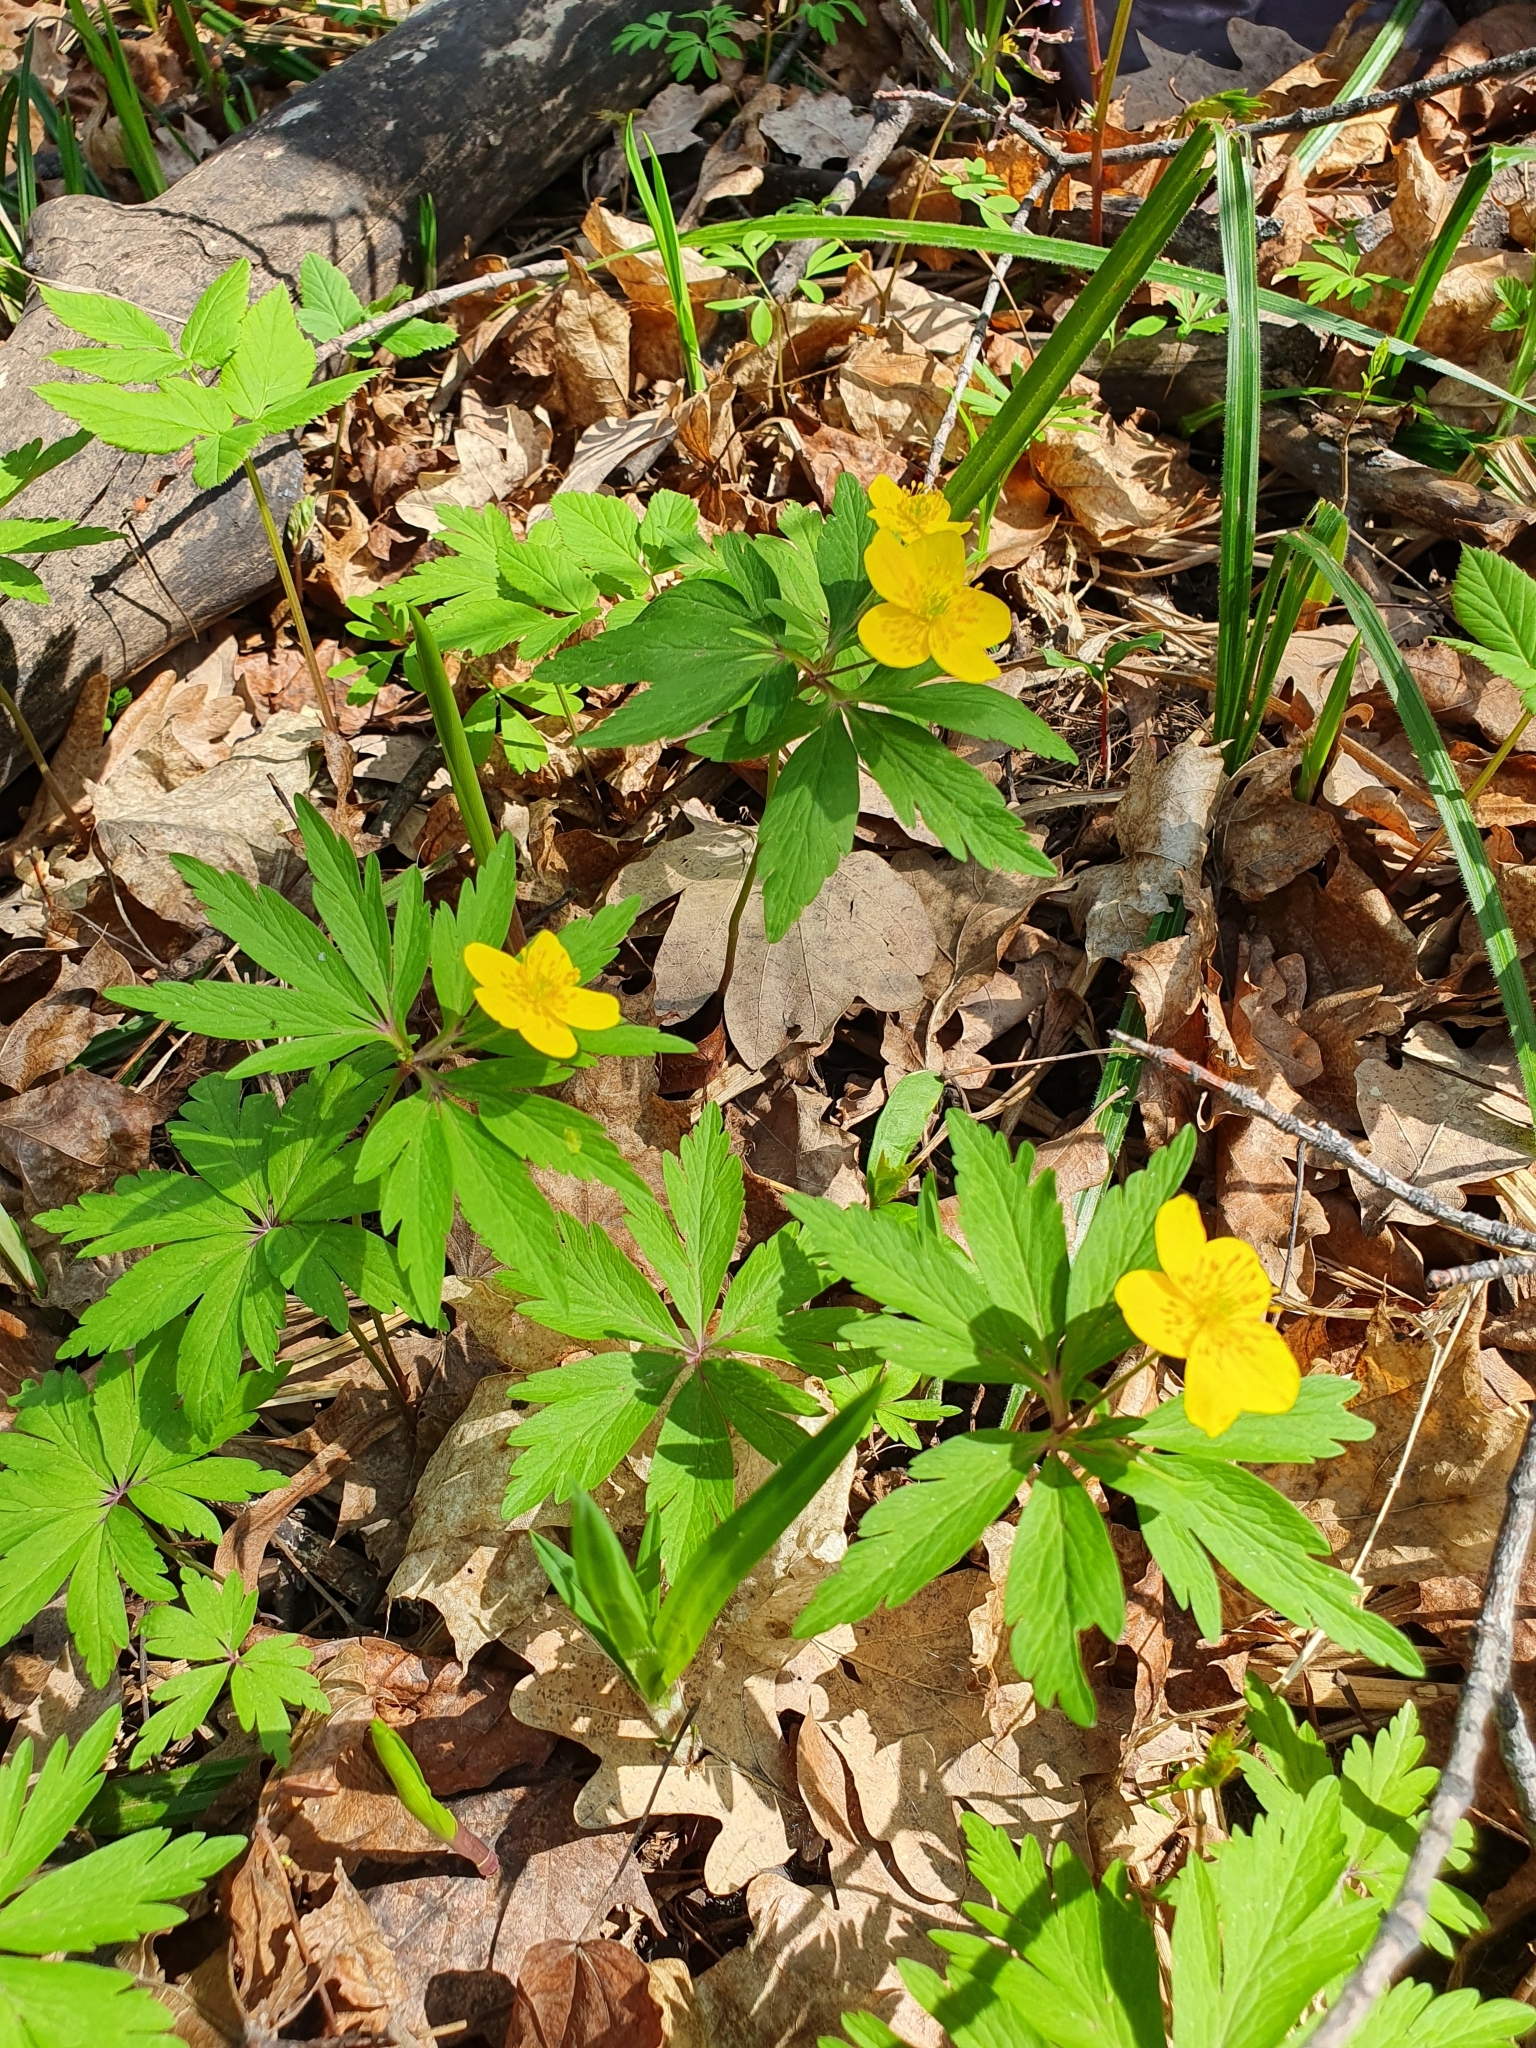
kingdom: Plantae
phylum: Tracheophyta
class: Magnoliopsida
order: Ranunculales
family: Ranunculaceae
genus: Anemone
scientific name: Anemone ranunculoides
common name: Yellow anemone
